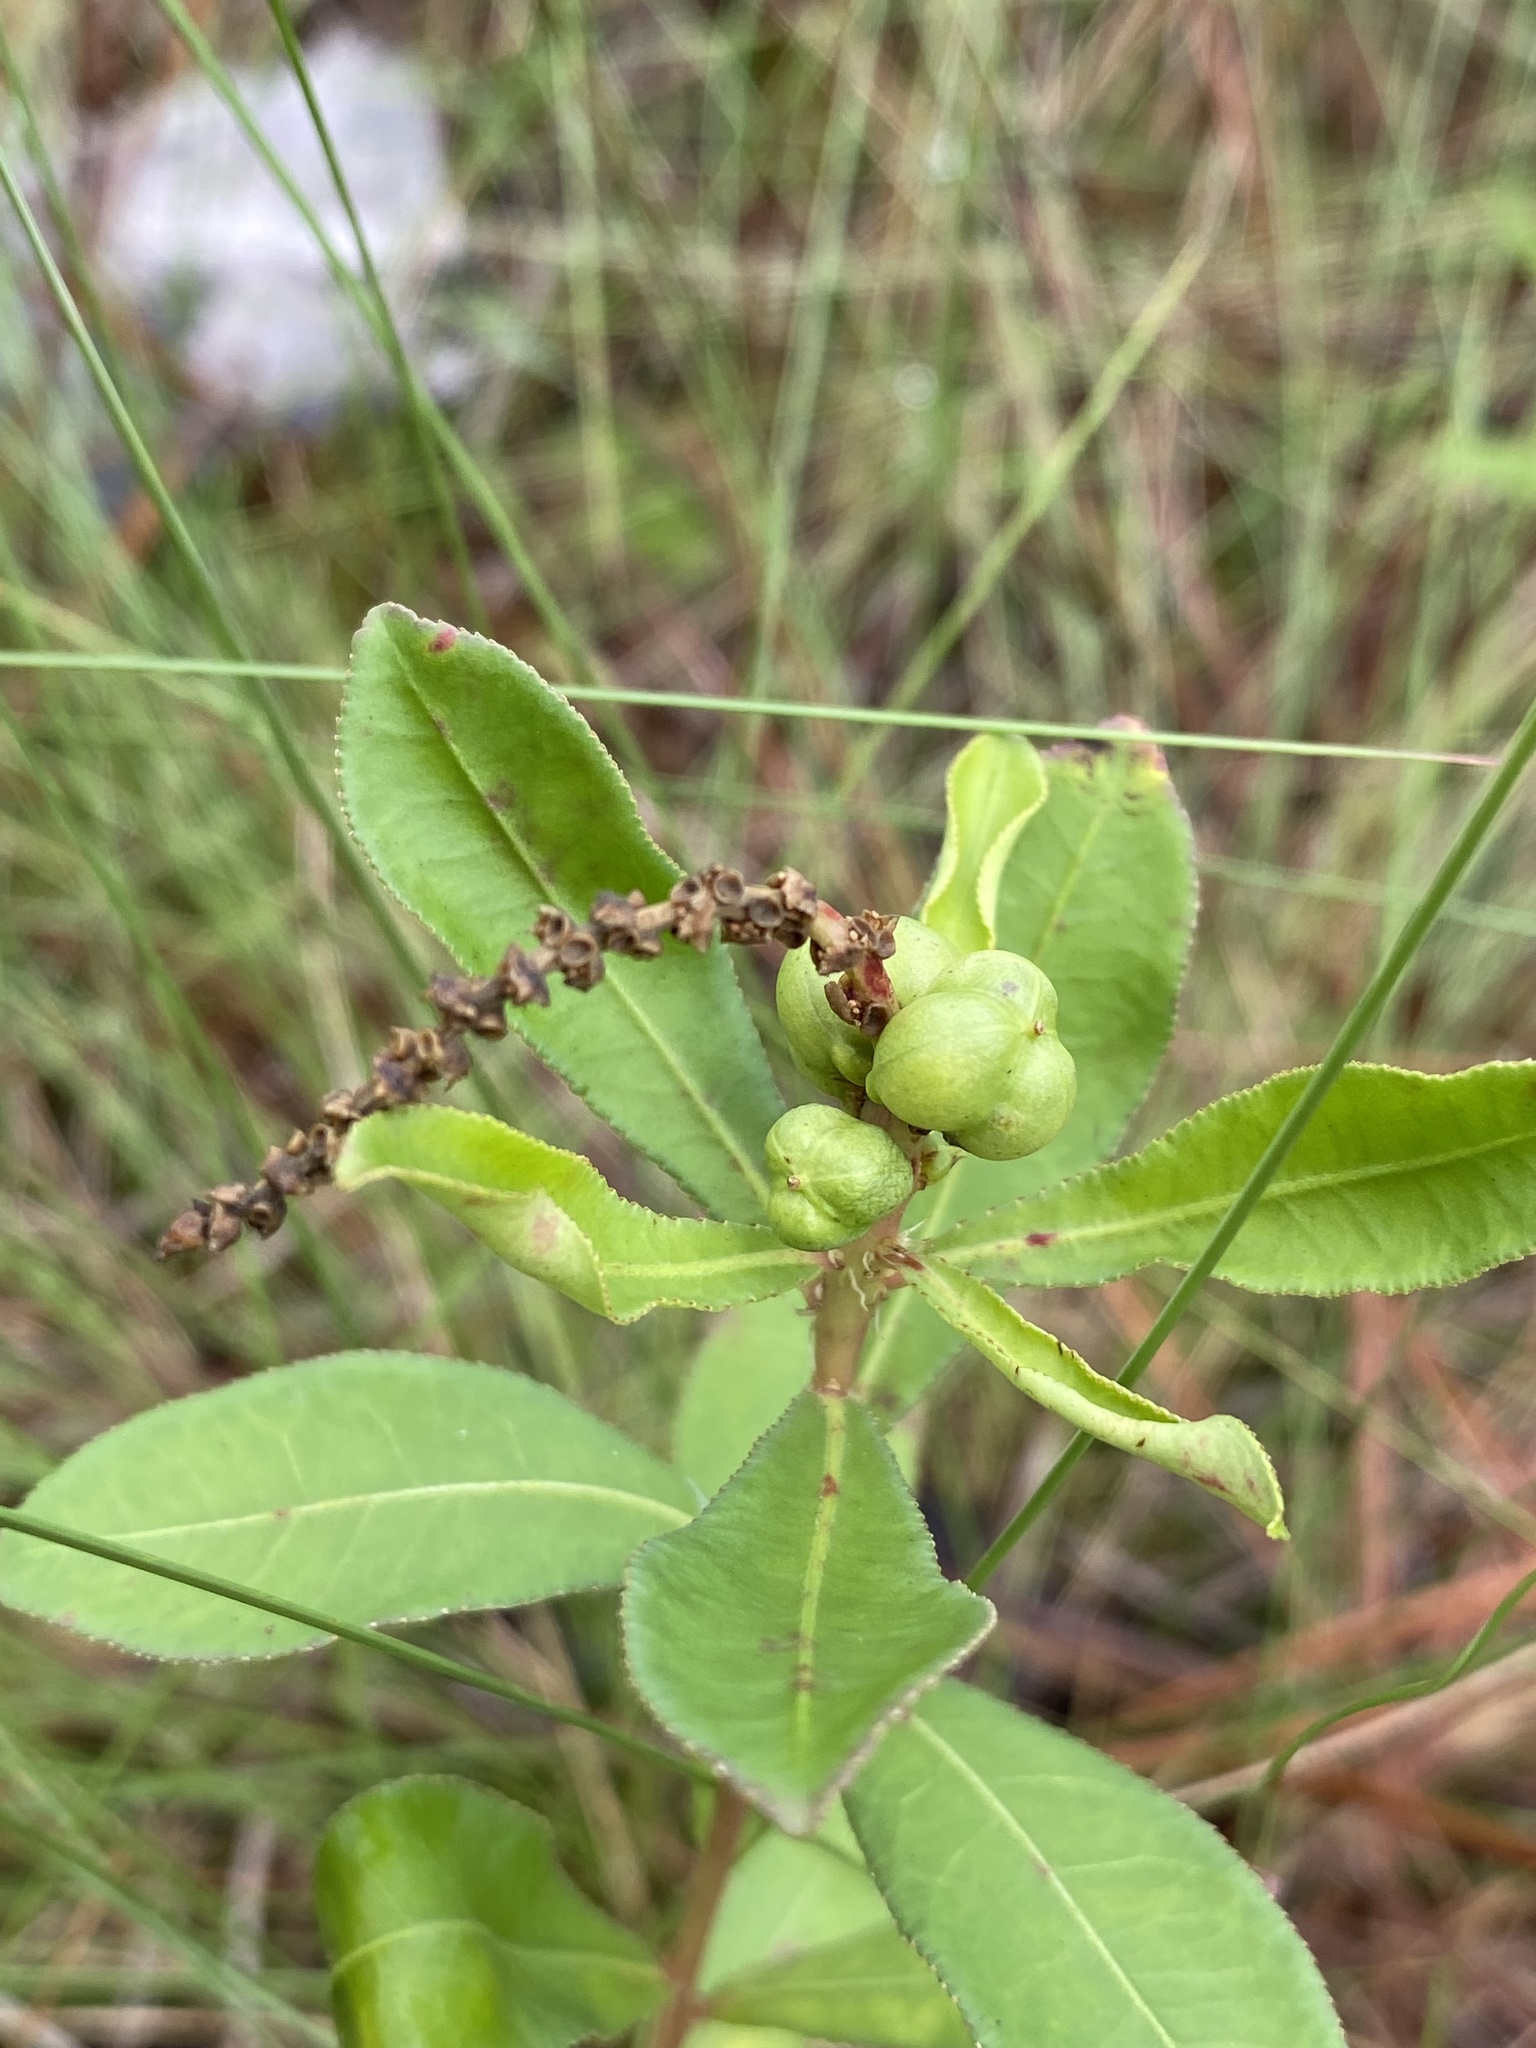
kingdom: Plantae
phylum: Tracheophyta
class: Magnoliopsida
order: Malpighiales
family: Euphorbiaceae
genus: Stillingia
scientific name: Stillingia sylvatica
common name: Queen's-delight
